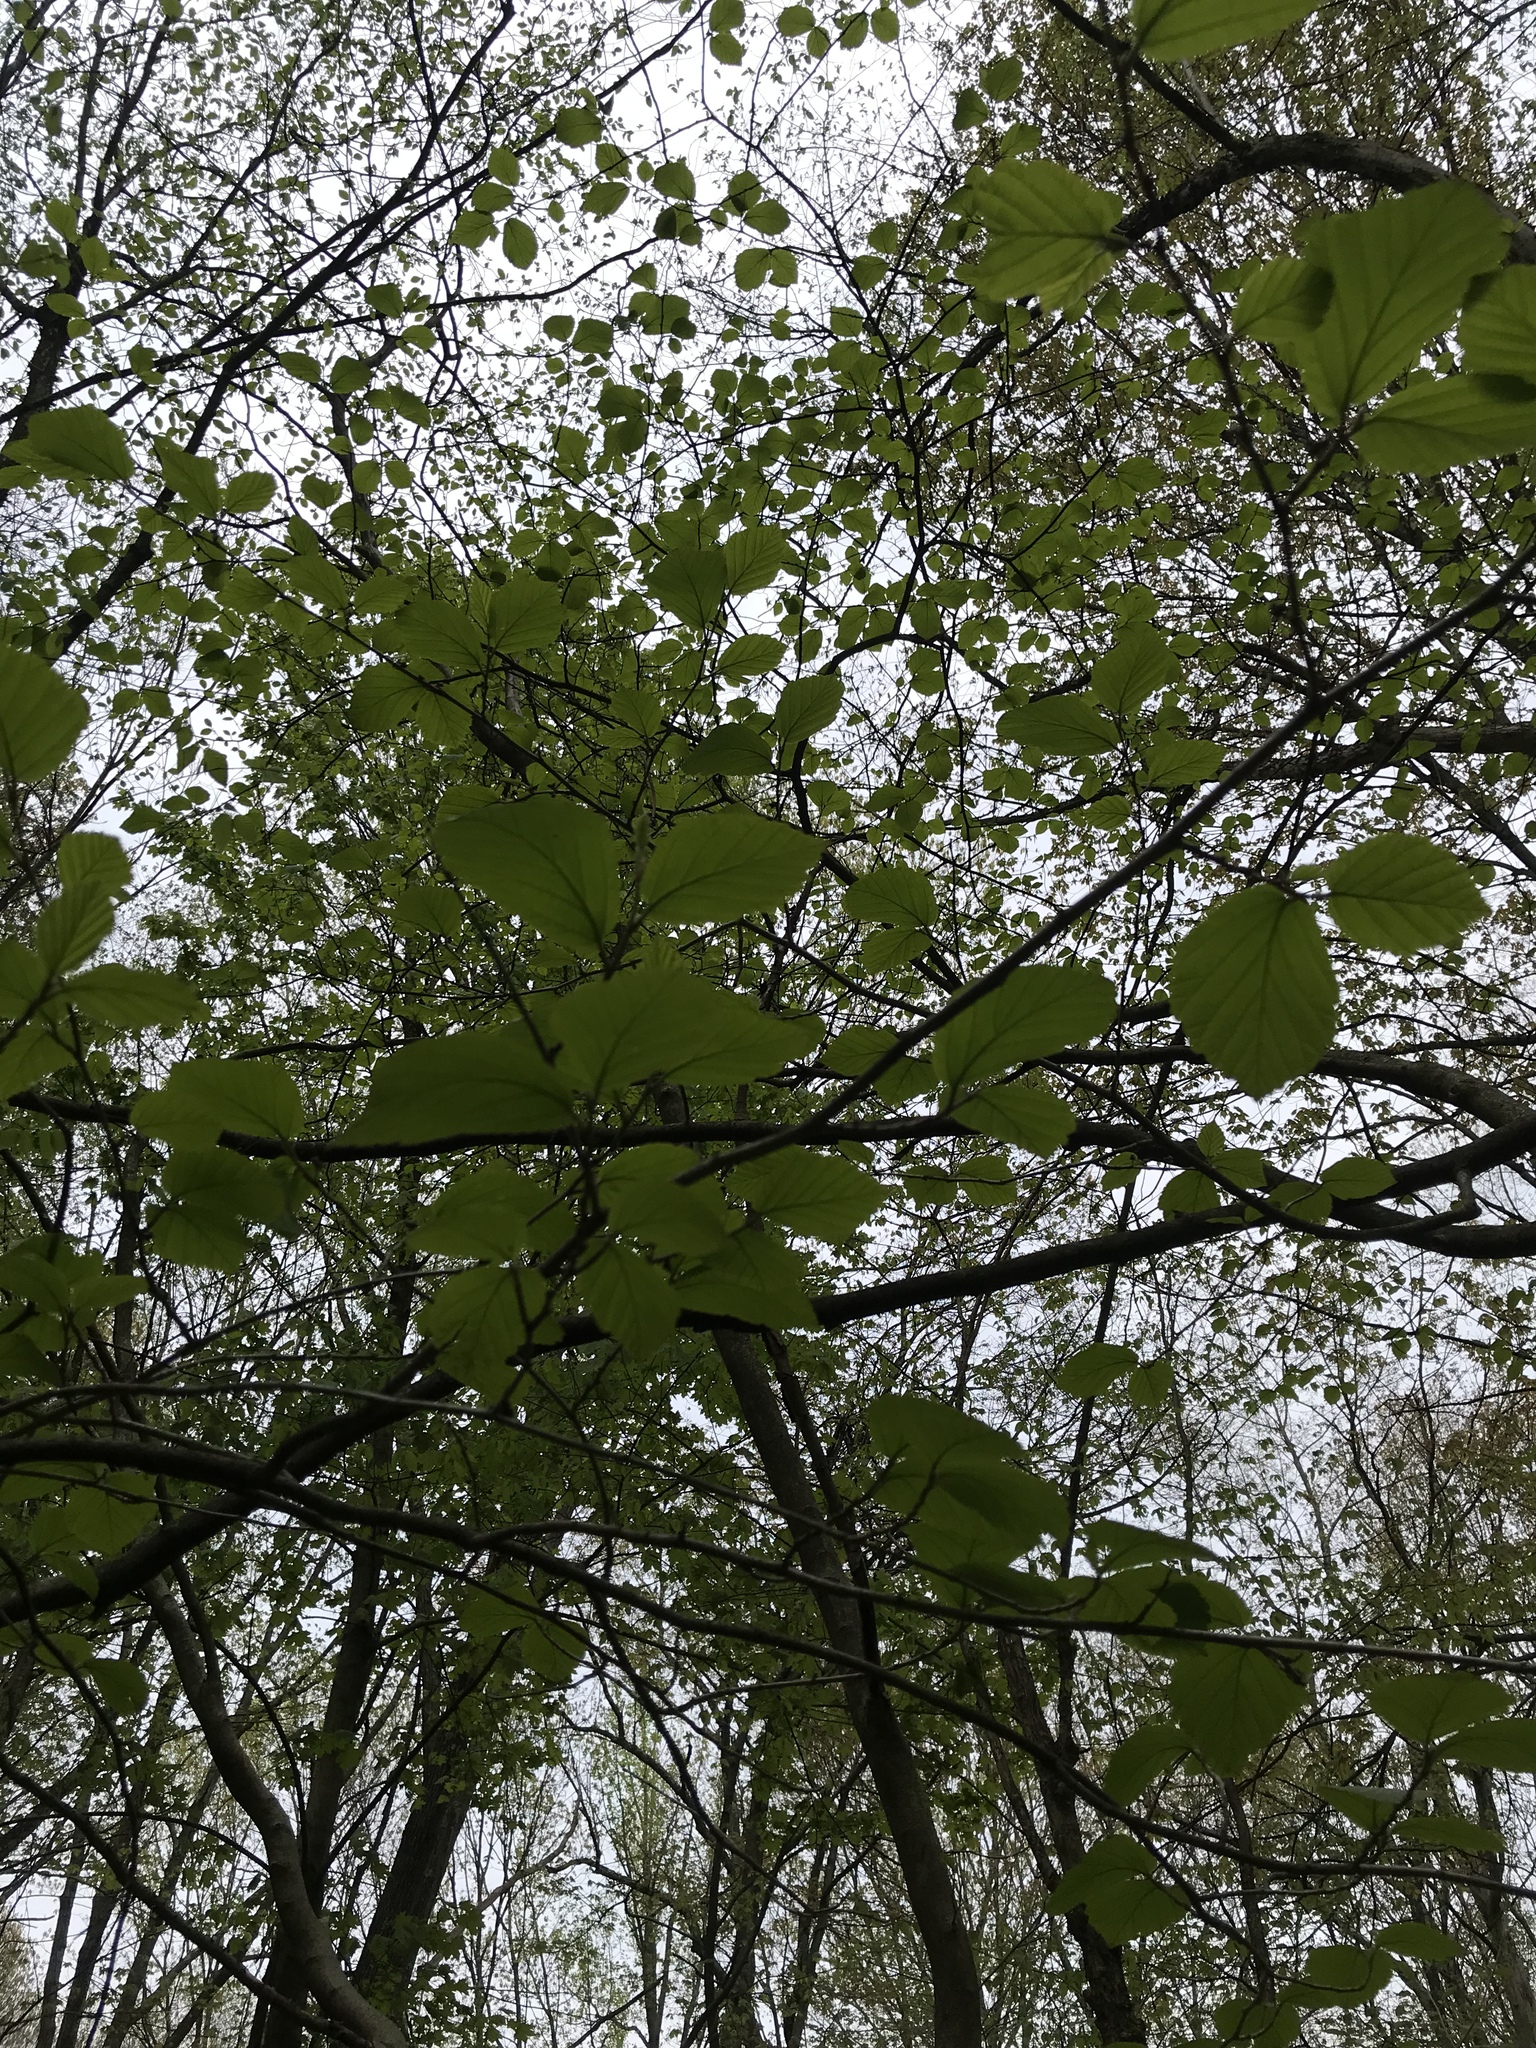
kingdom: Plantae
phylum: Tracheophyta
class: Magnoliopsida
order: Saxifragales
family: Hamamelidaceae
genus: Hamamelis
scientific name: Hamamelis virginiana
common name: Witch-hazel
